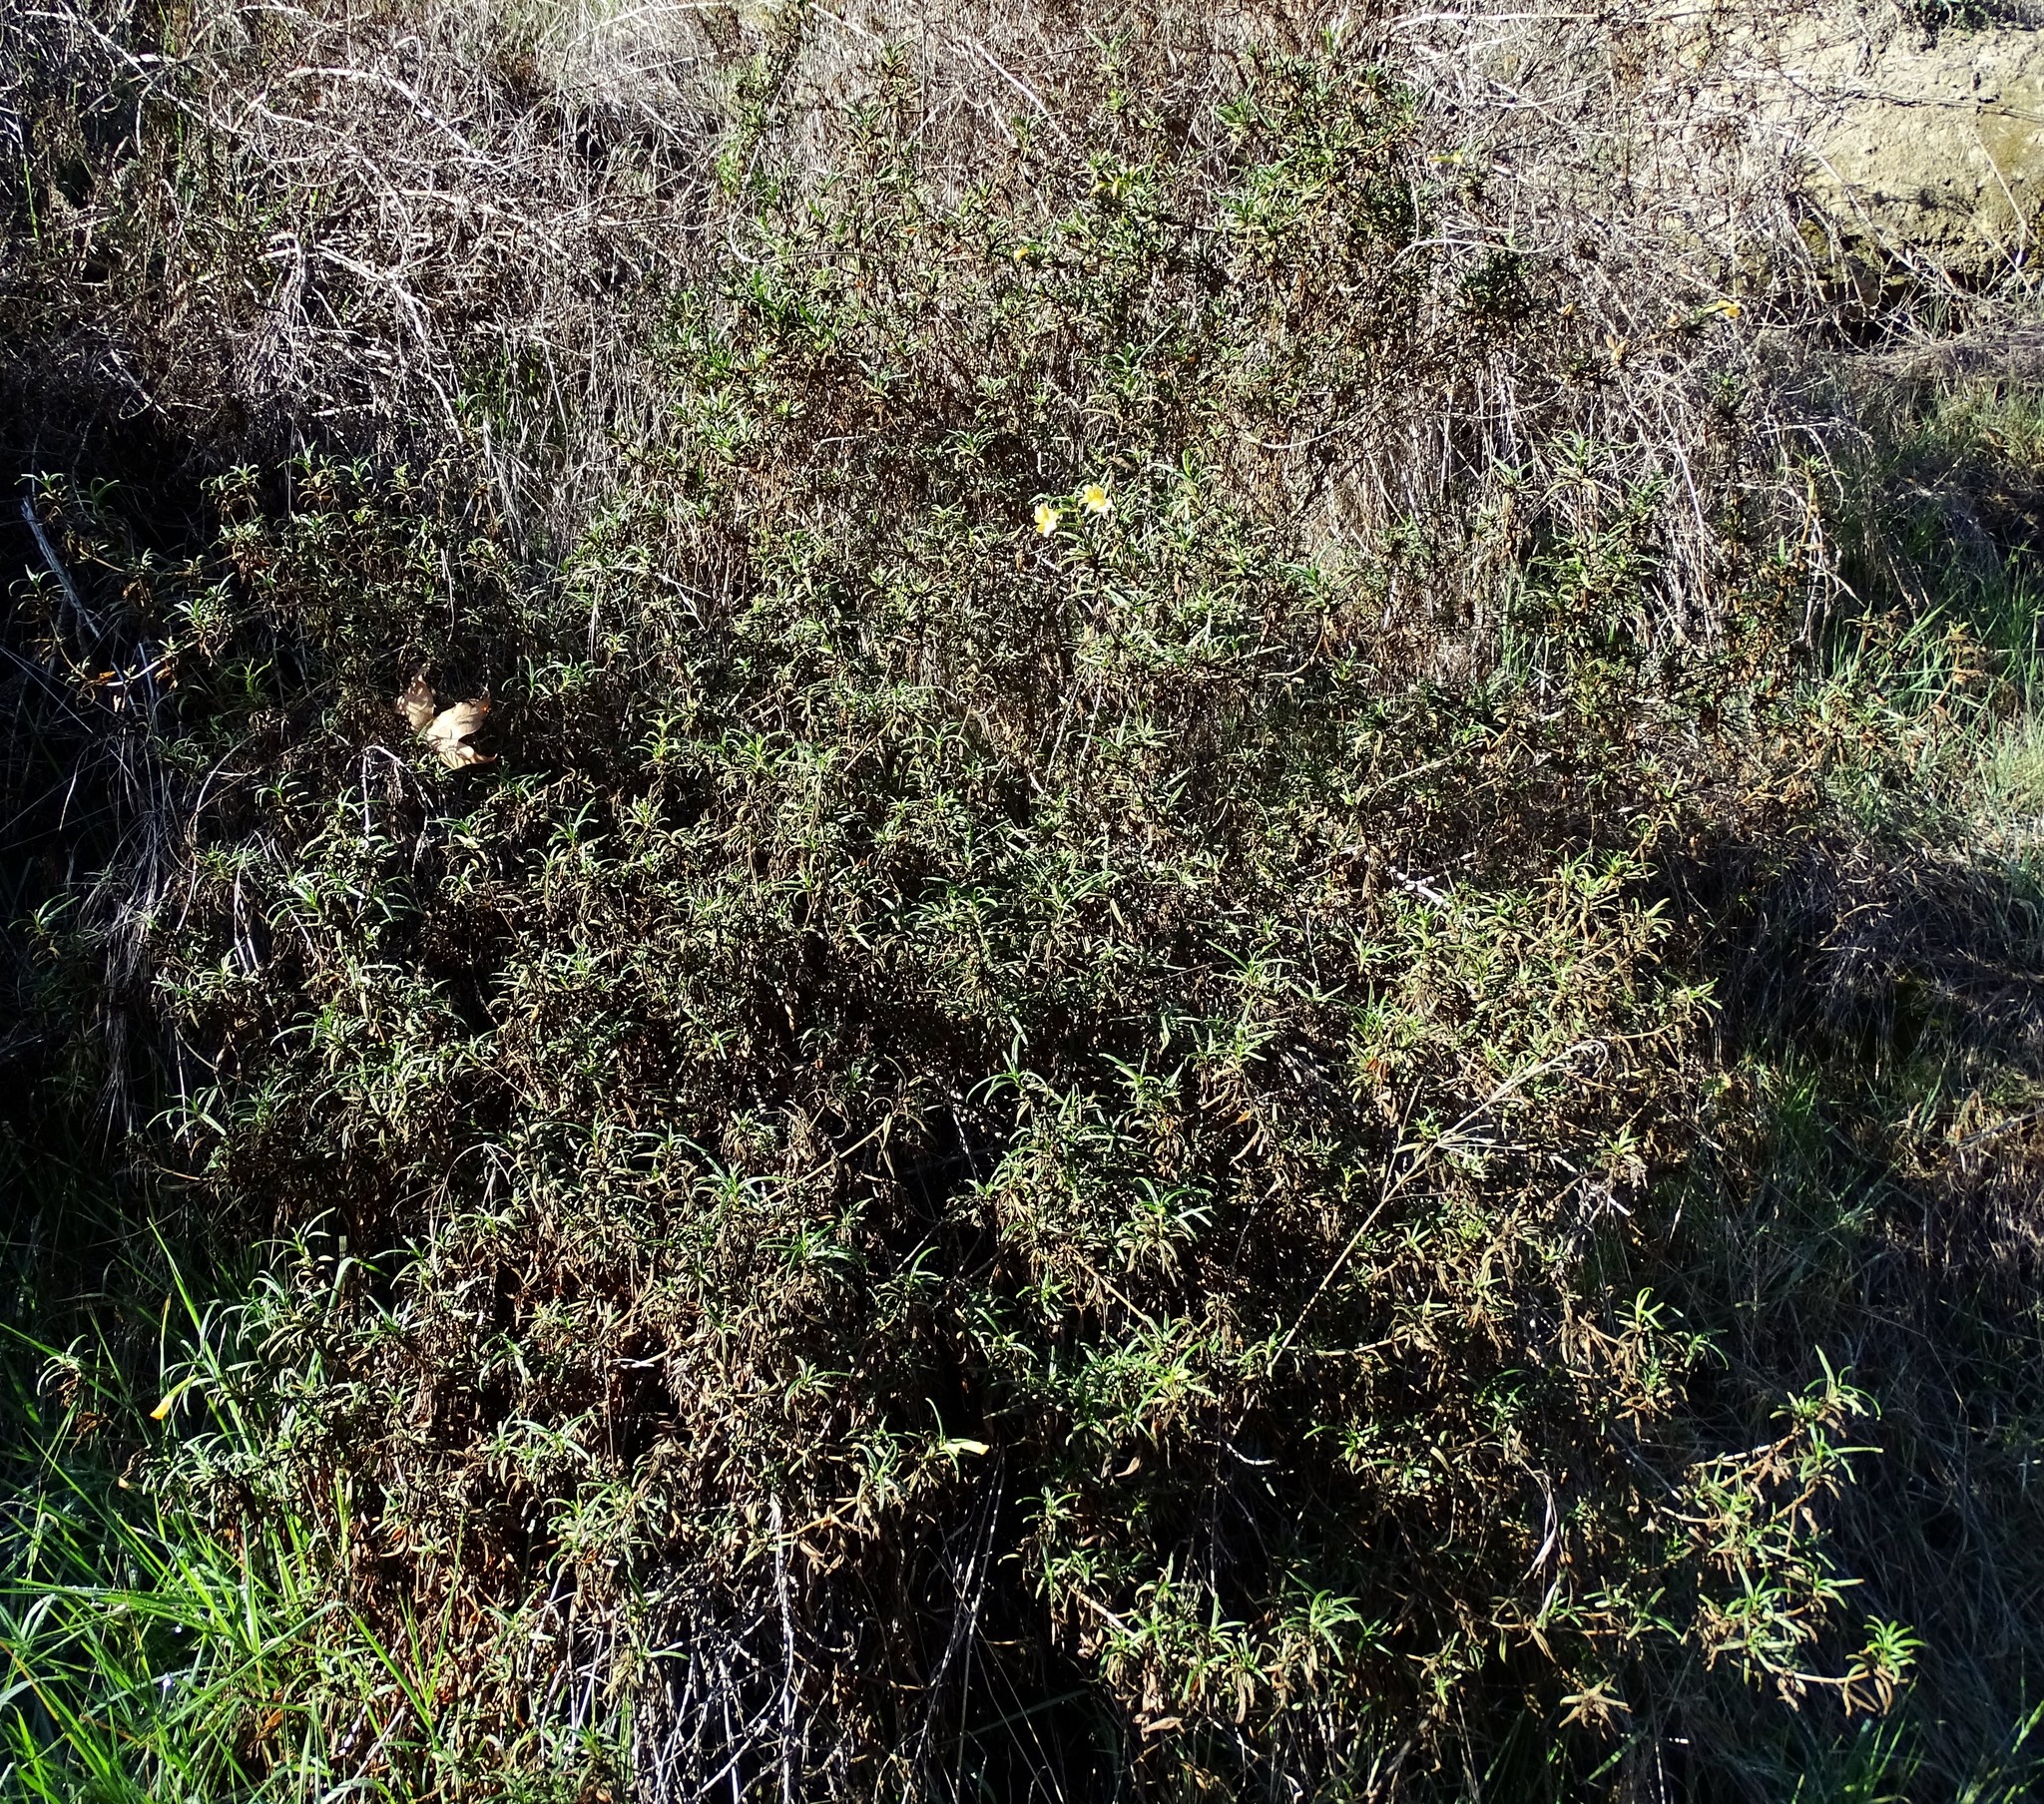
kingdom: Plantae
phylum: Tracheophyta
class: Magnoliopsida
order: Lamiales
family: Phrymaceae
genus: Diplacus
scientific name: Diplacus australis
